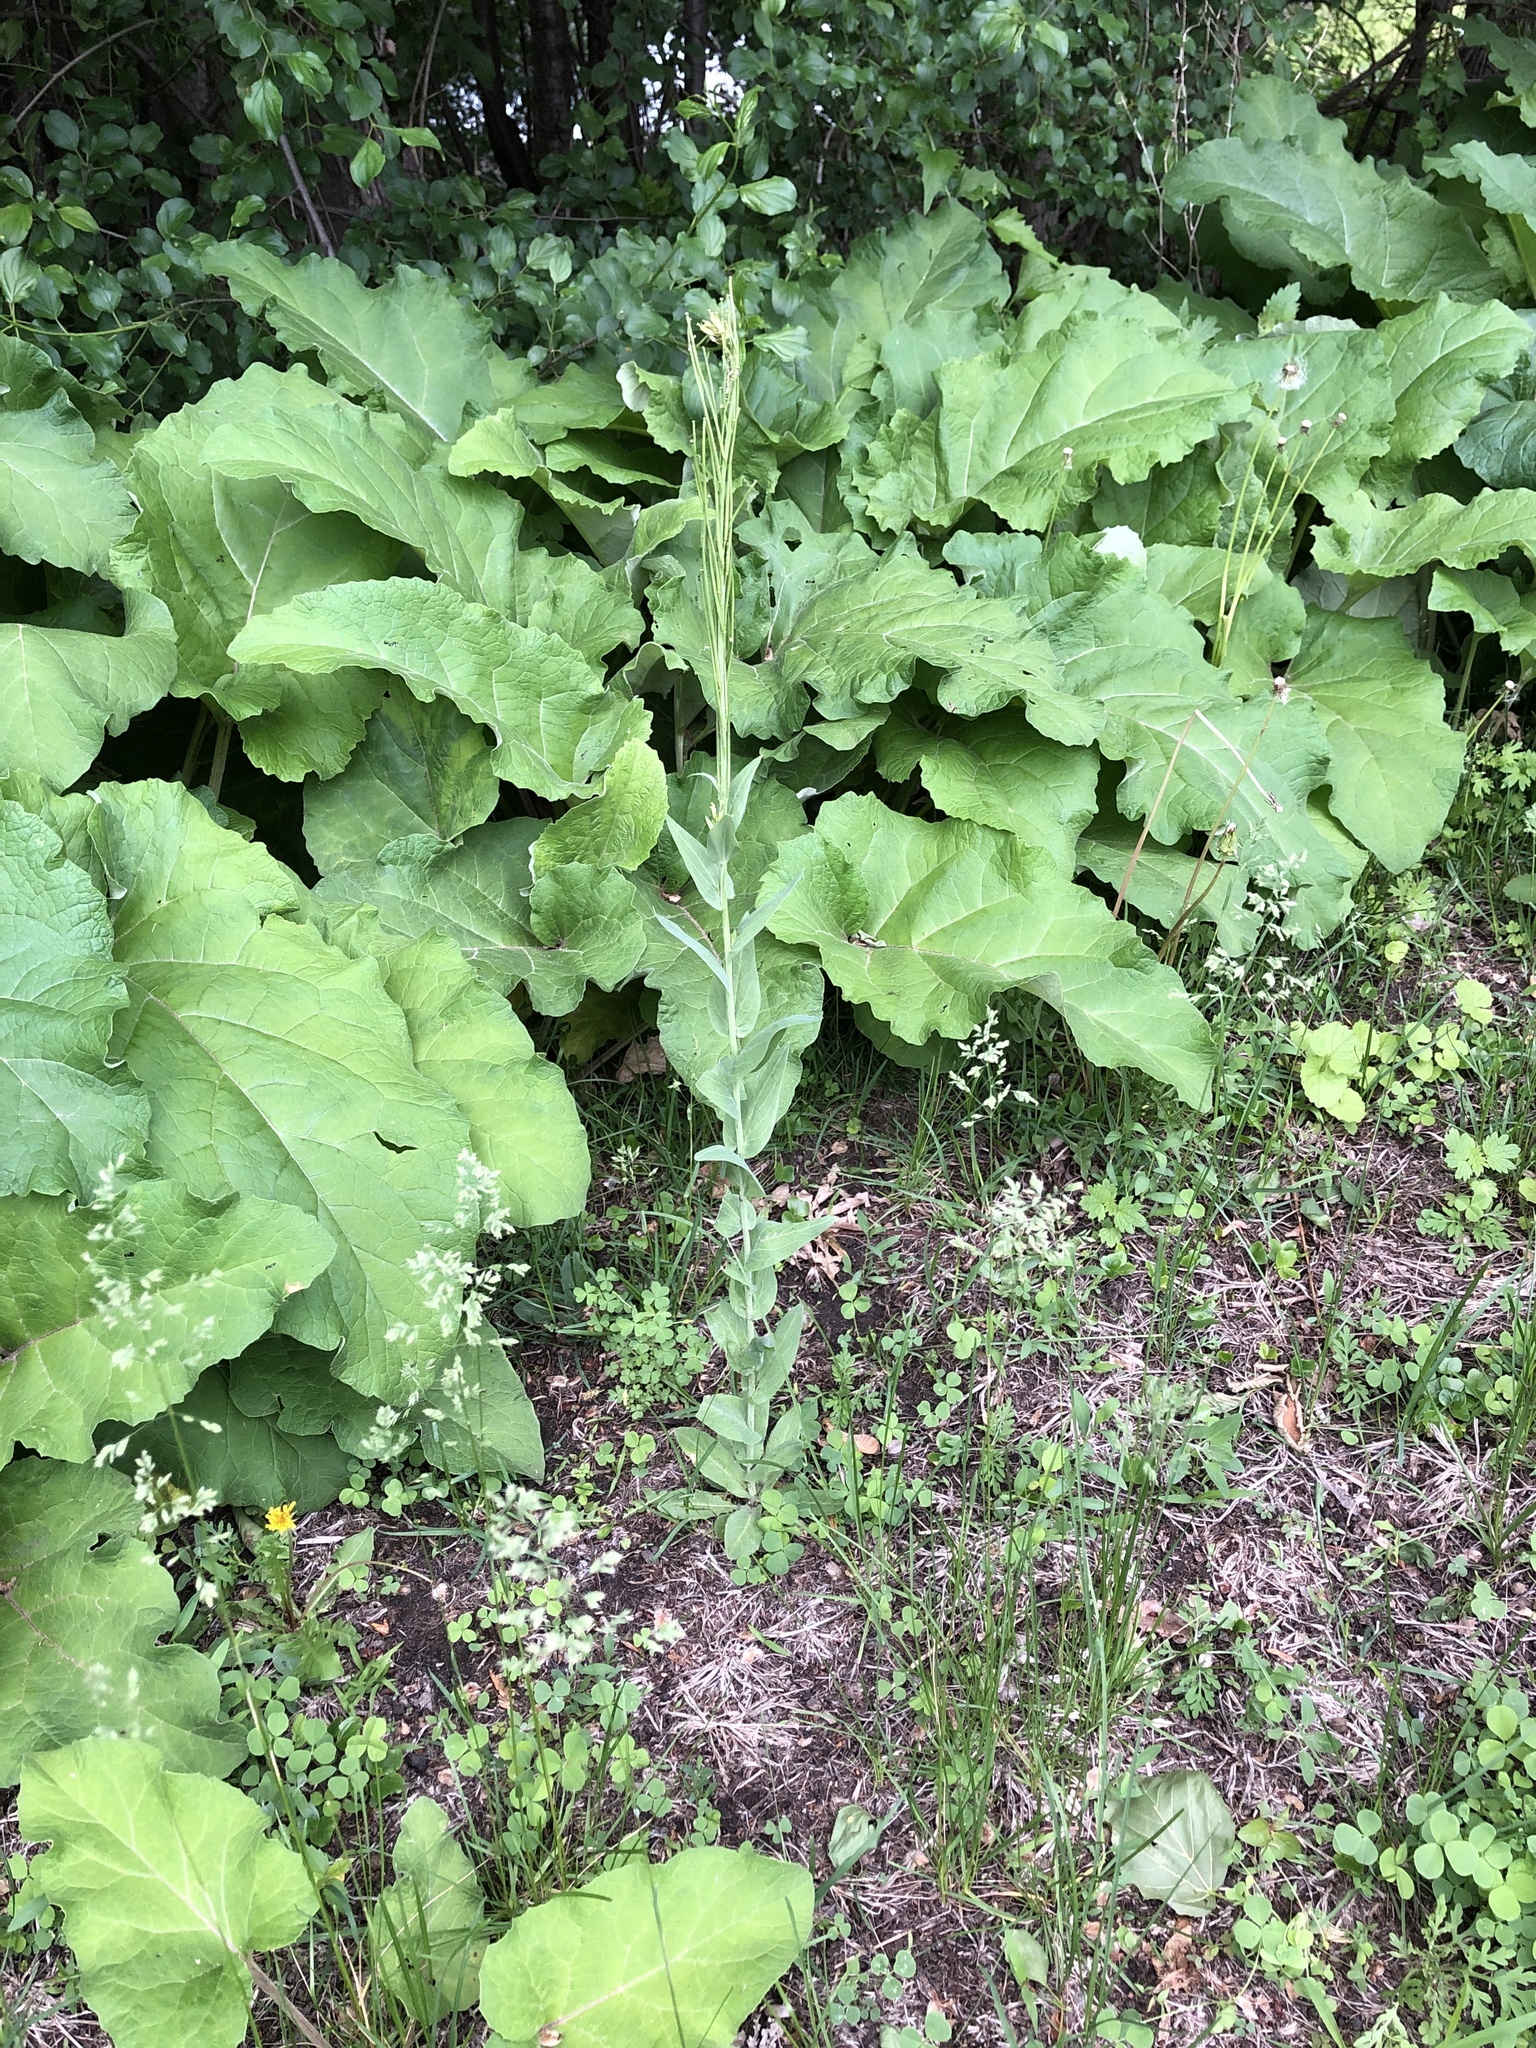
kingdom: Plantae
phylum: Tracheophyta
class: Magnoliopsida
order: Brassicales
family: Brassicaceae
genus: Turritis
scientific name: Turritis glabra
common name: Tower rockcress
